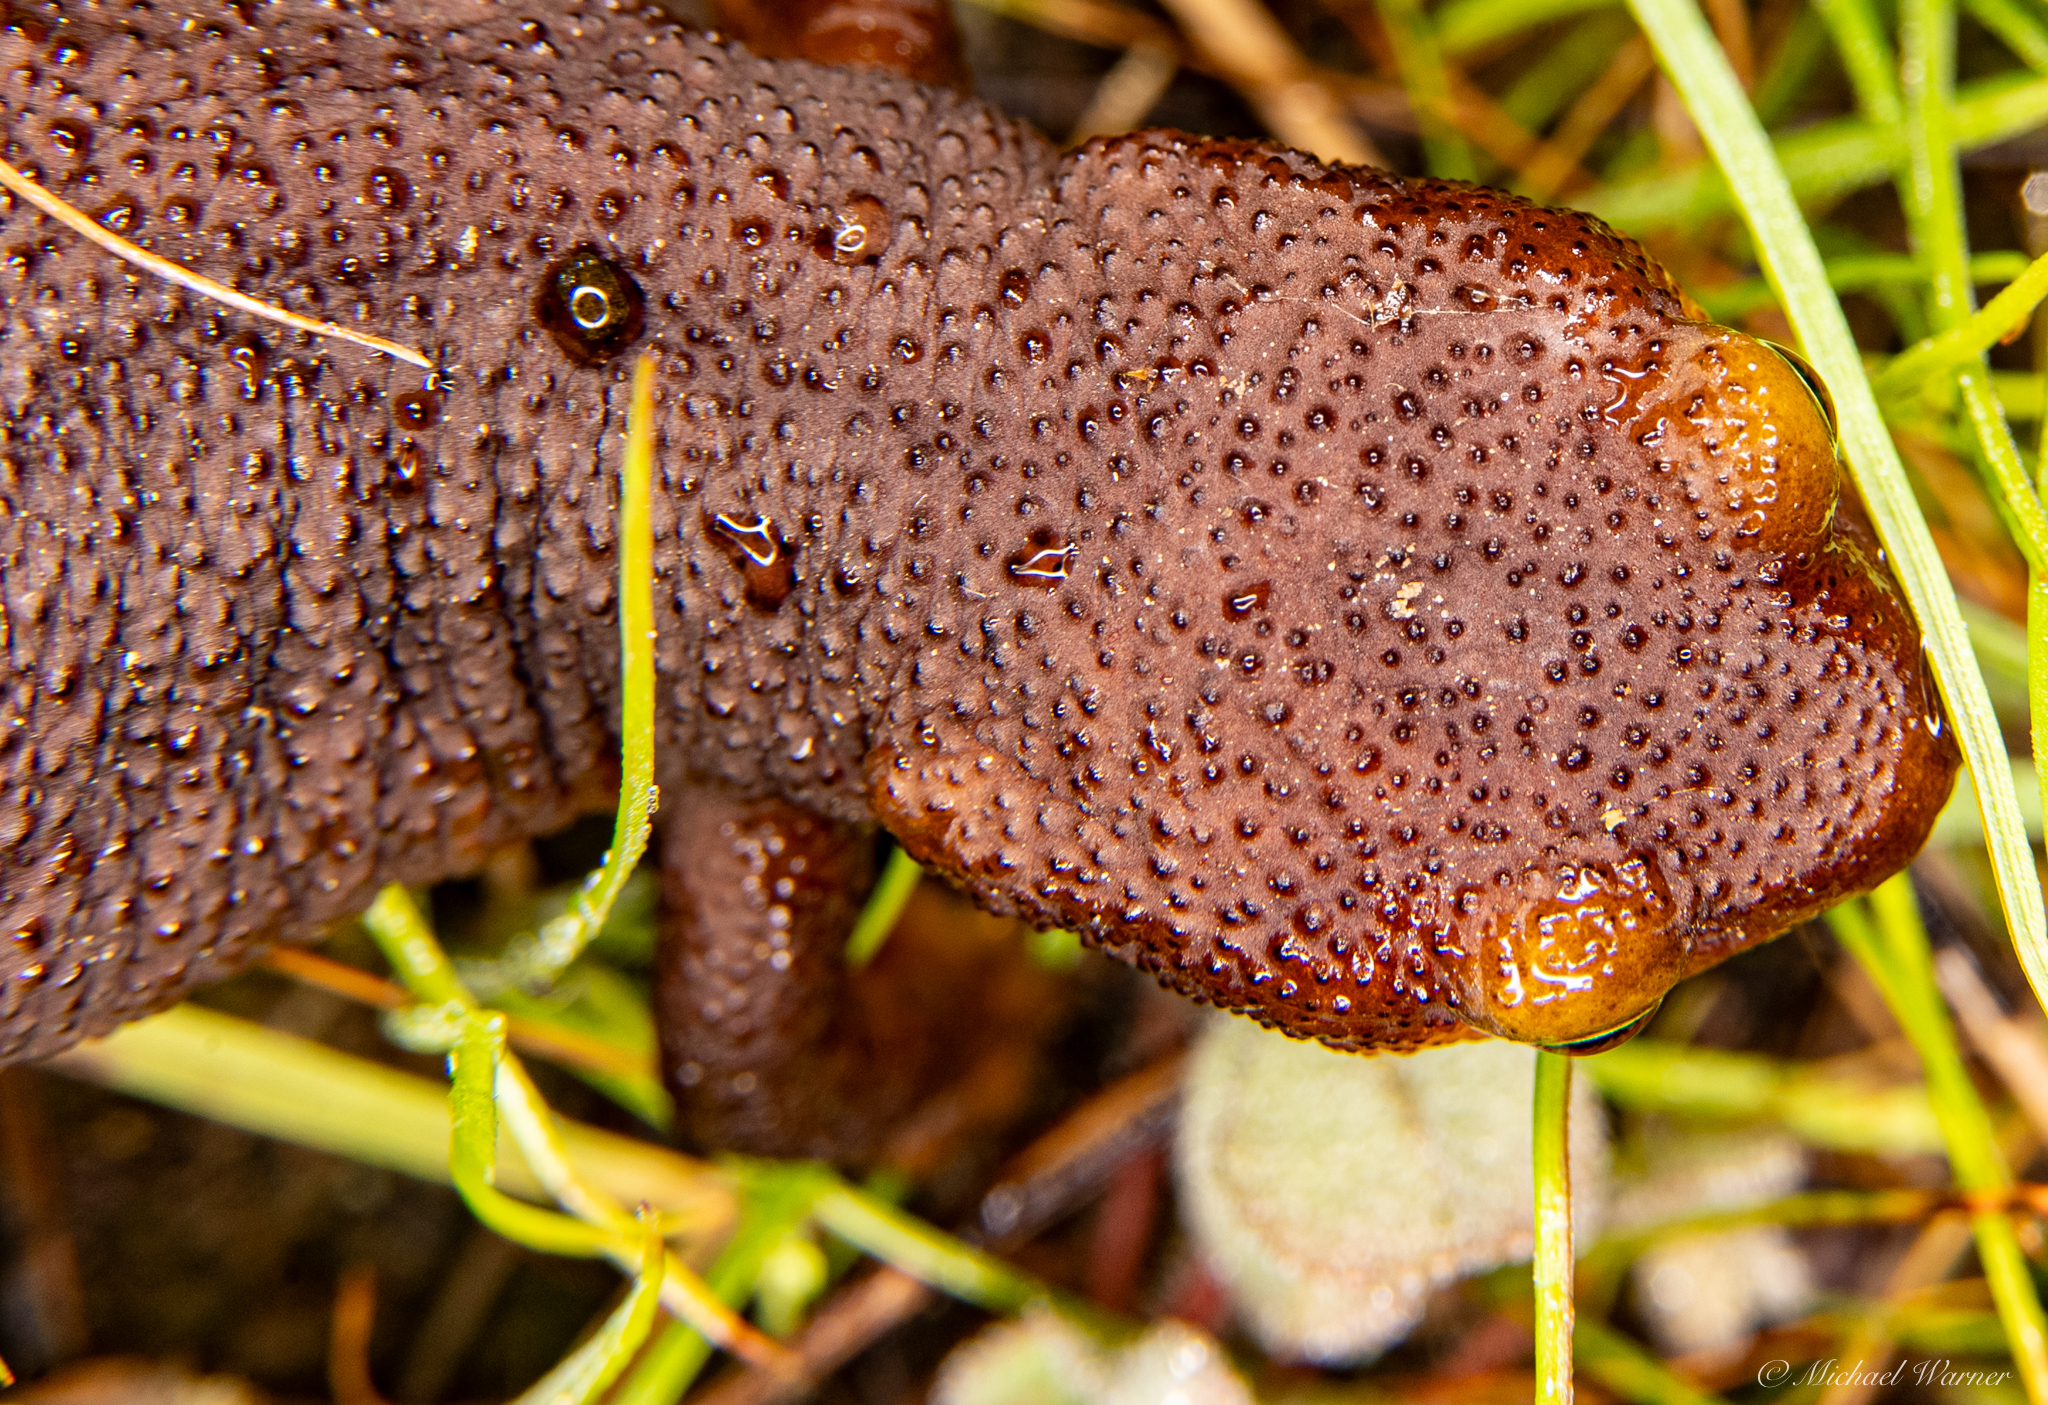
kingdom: Animalia
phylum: Chordata
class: Amphibia
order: Caudata
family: Salamandridae
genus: Taricha
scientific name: Taricha torosa
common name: California newt
